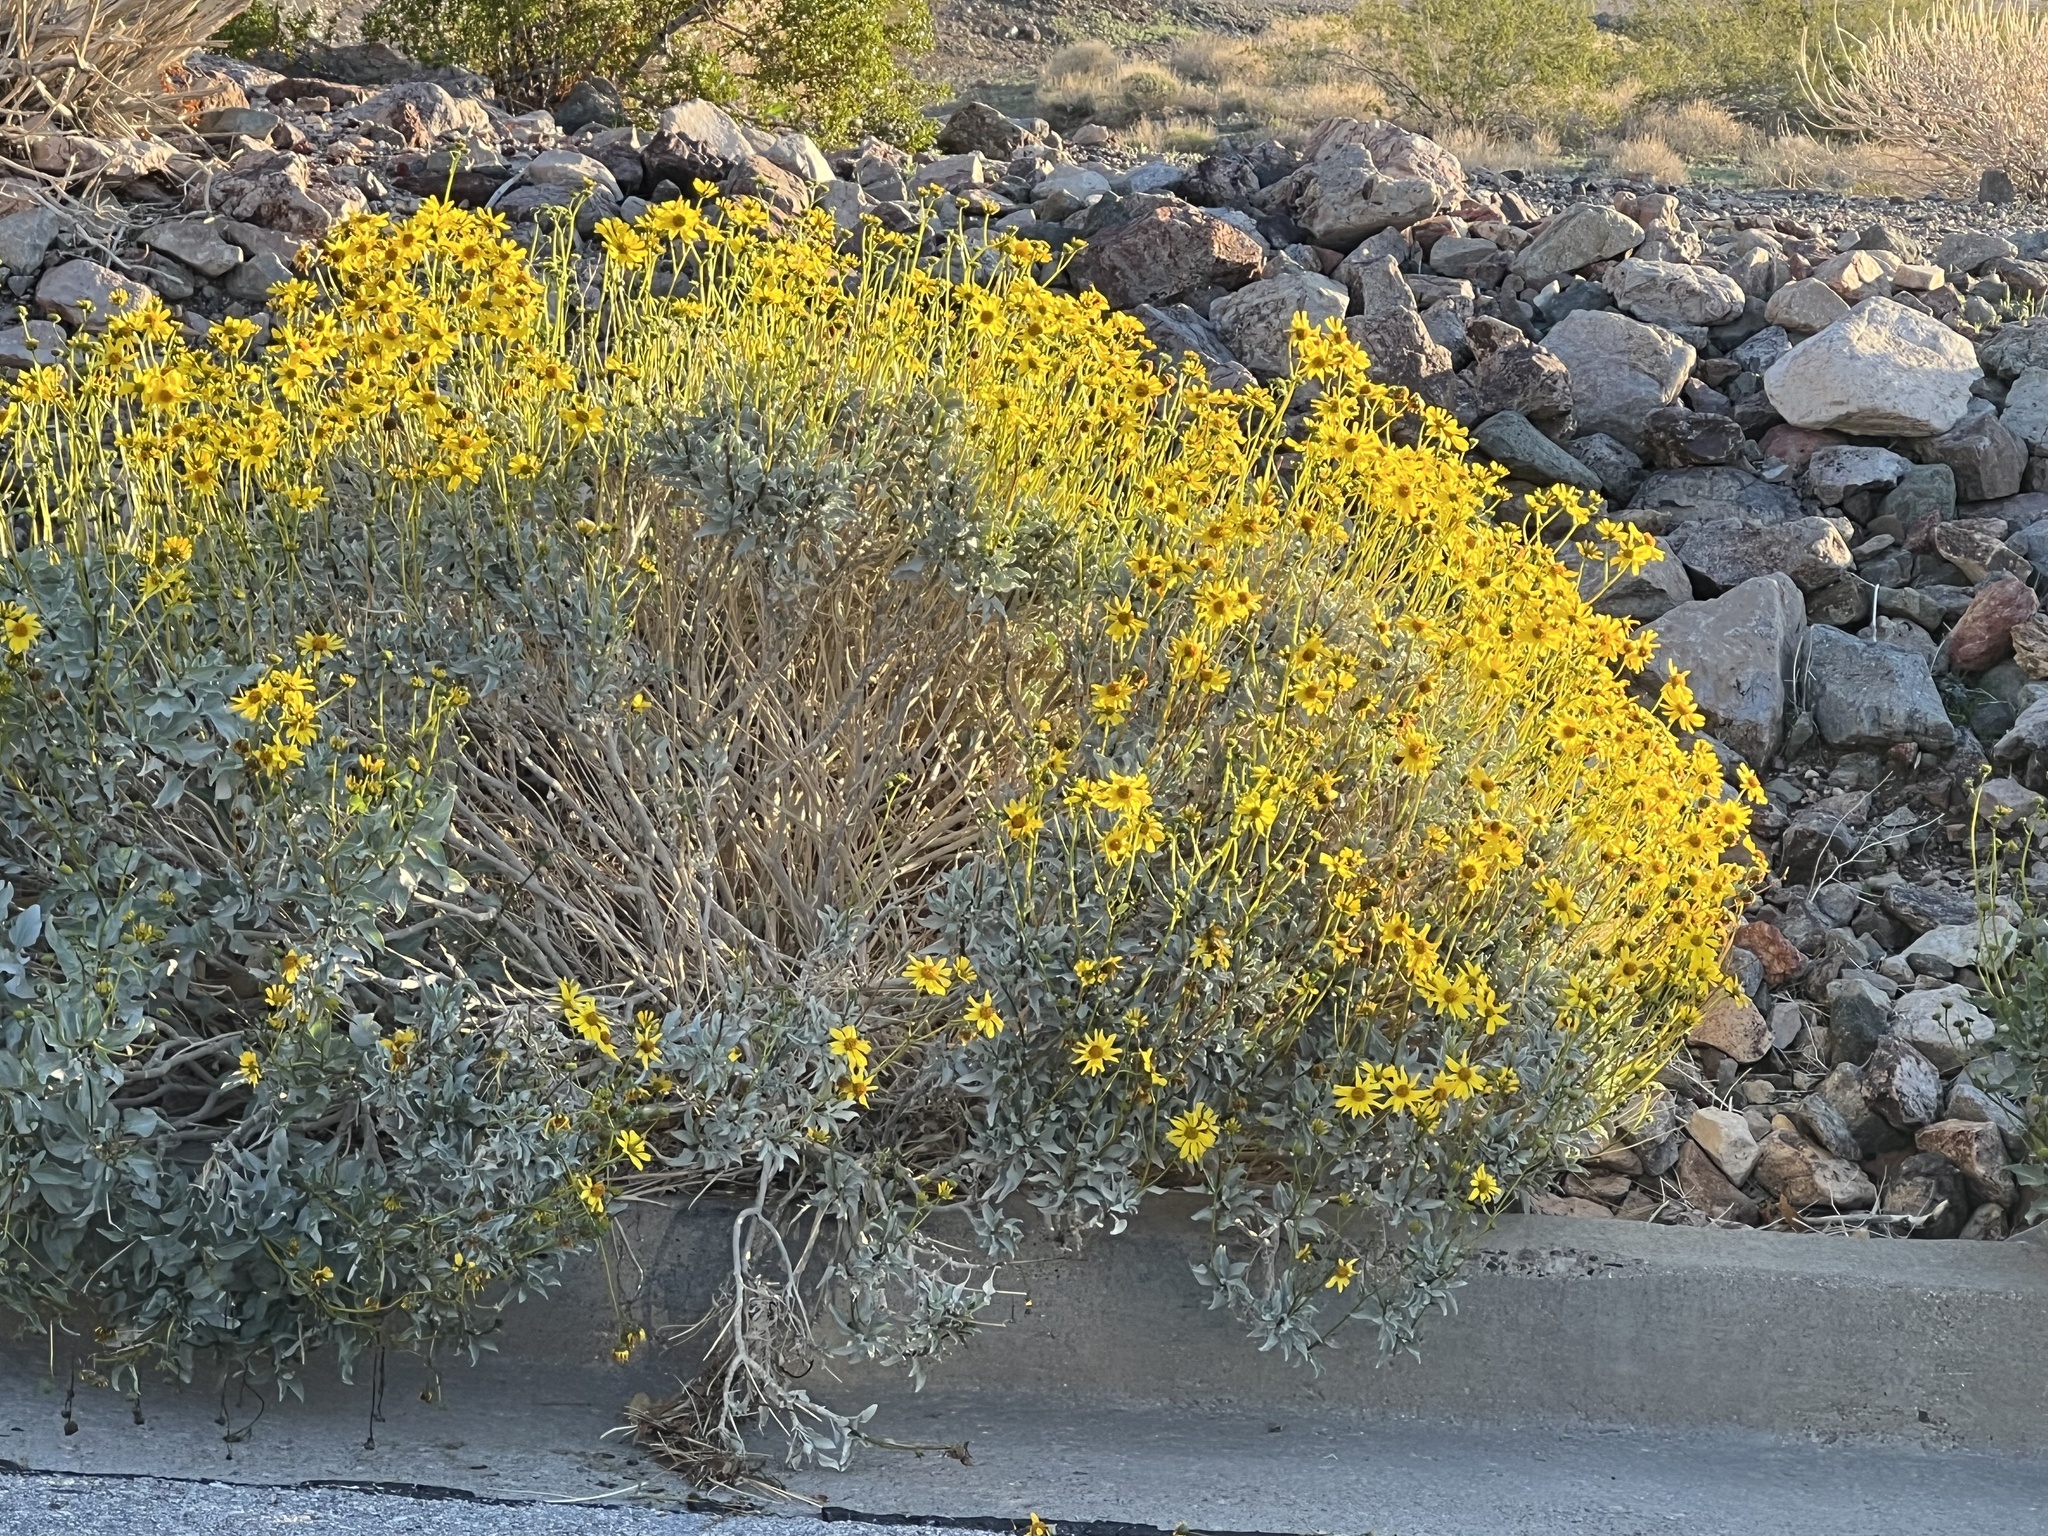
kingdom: Plantae
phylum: Tracheophyta
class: Magnoliopsida
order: Asterales
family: Asteraceae
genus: Encelia
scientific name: Encelia farinosa
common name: Brittlebush
